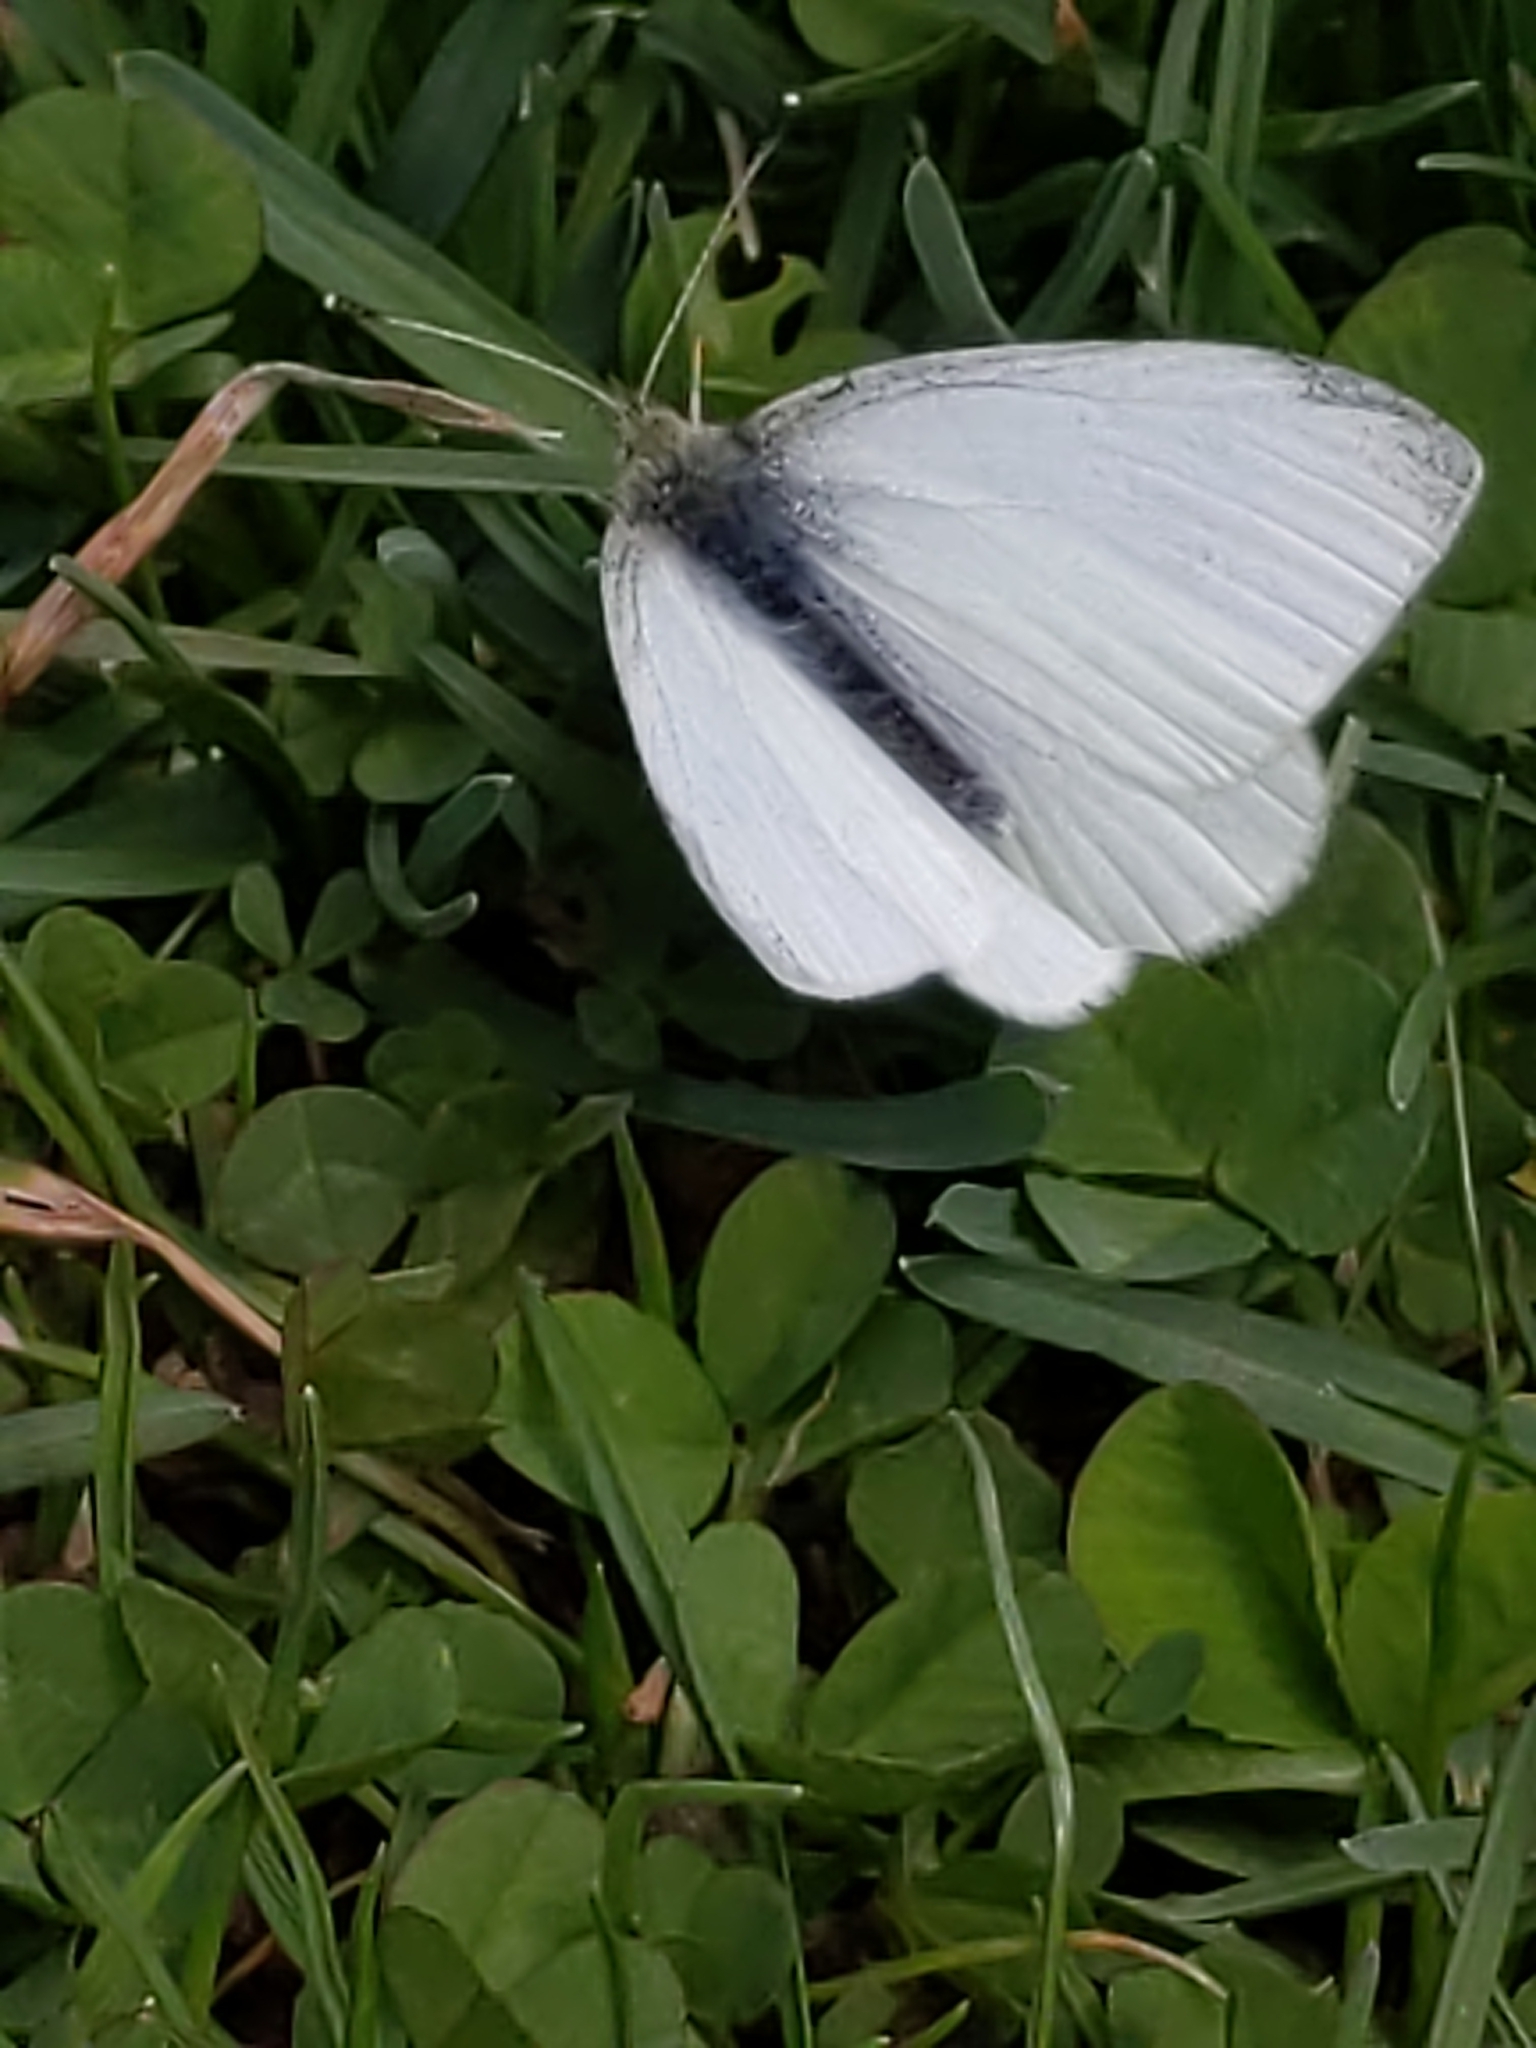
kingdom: Animalia
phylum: Arthropoda
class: Insecta
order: Lepidoptera
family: Pieridae
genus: Pieris
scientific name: Pieris rapae
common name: Small white
